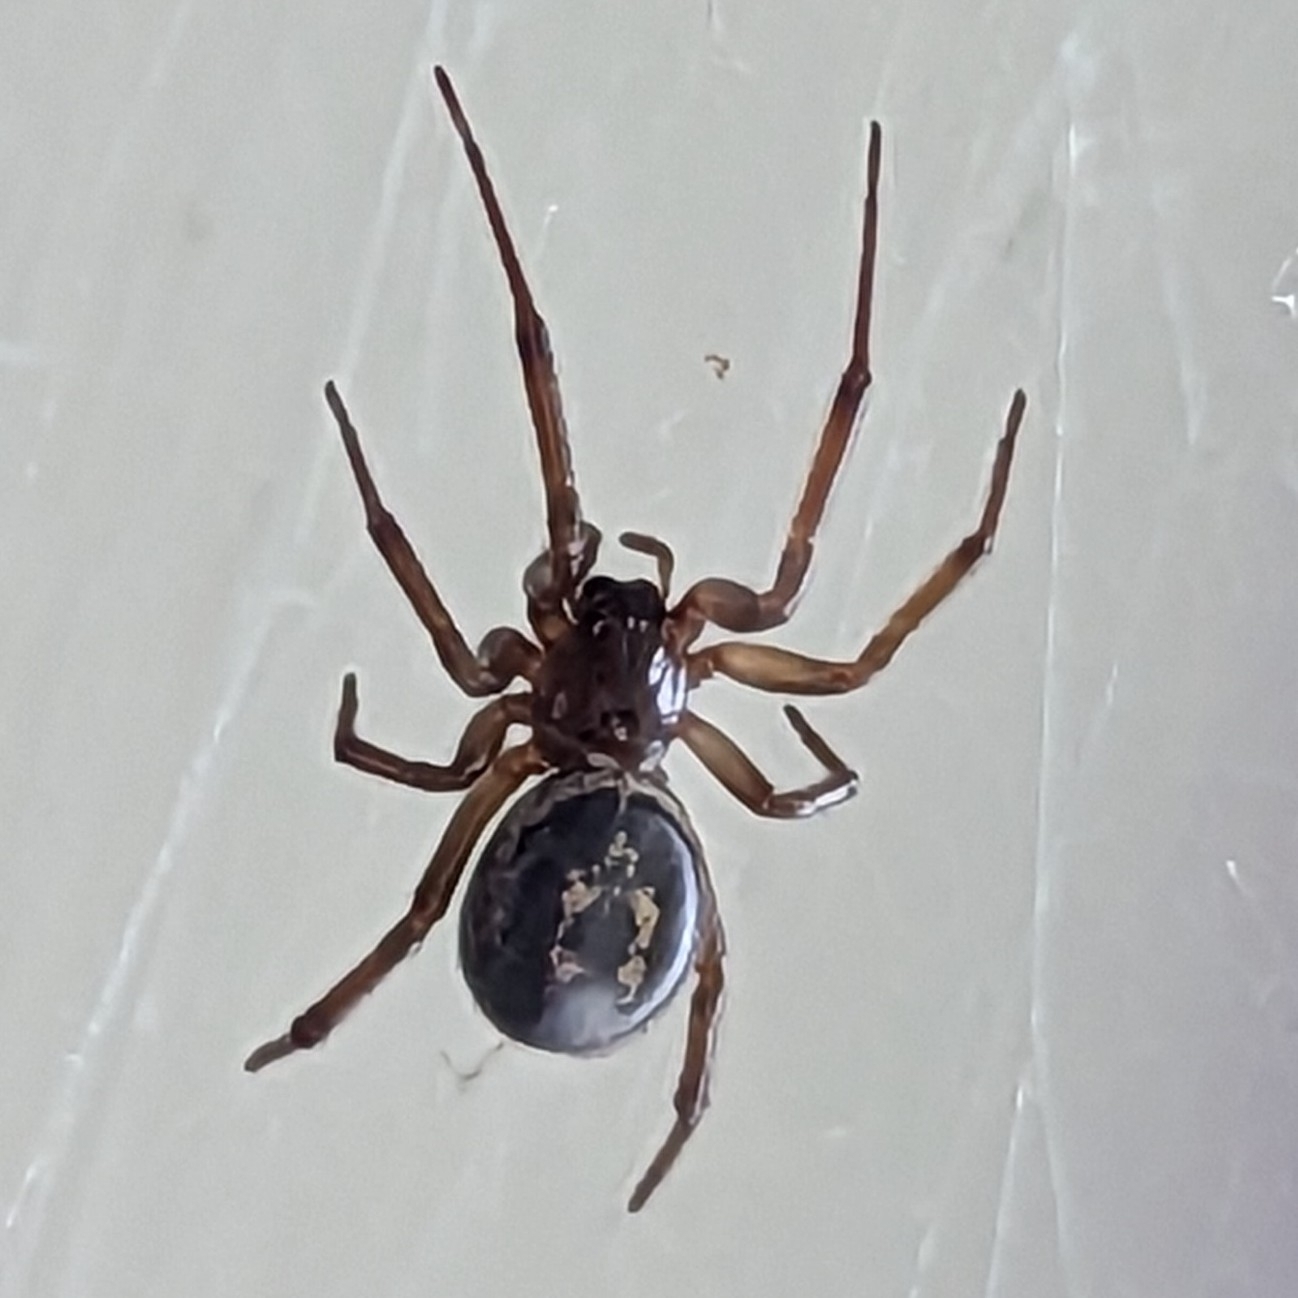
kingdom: Animalia
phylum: Arthropoda
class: Arachnida
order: Araneae
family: Theridiidae
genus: Steatoda
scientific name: Steatoda nobilis
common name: Cobweb weaver
